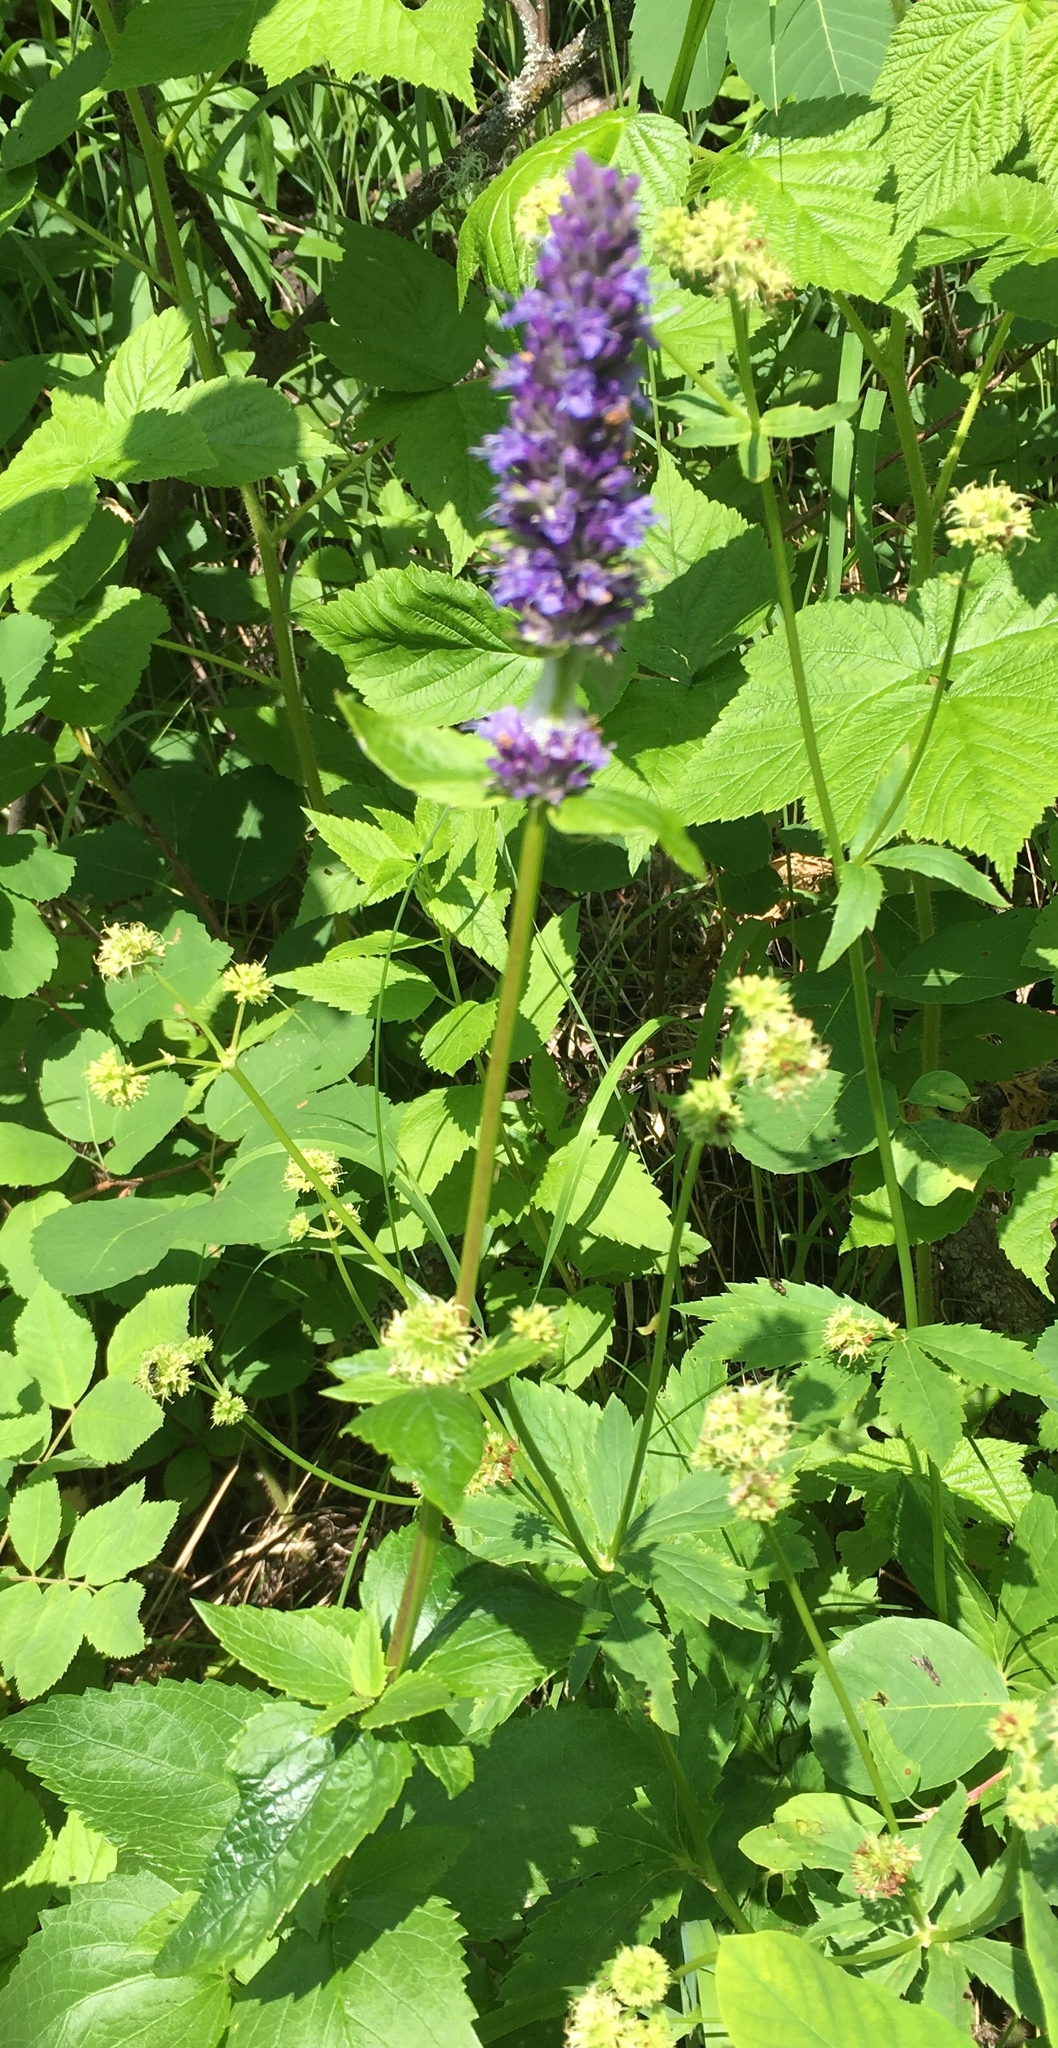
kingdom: Plantae
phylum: Tracheophyta
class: Magnoliopsida
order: Lamiales
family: Lamiaceae
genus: Agastache
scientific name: Agastache foeniculum
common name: Anise hyssop
